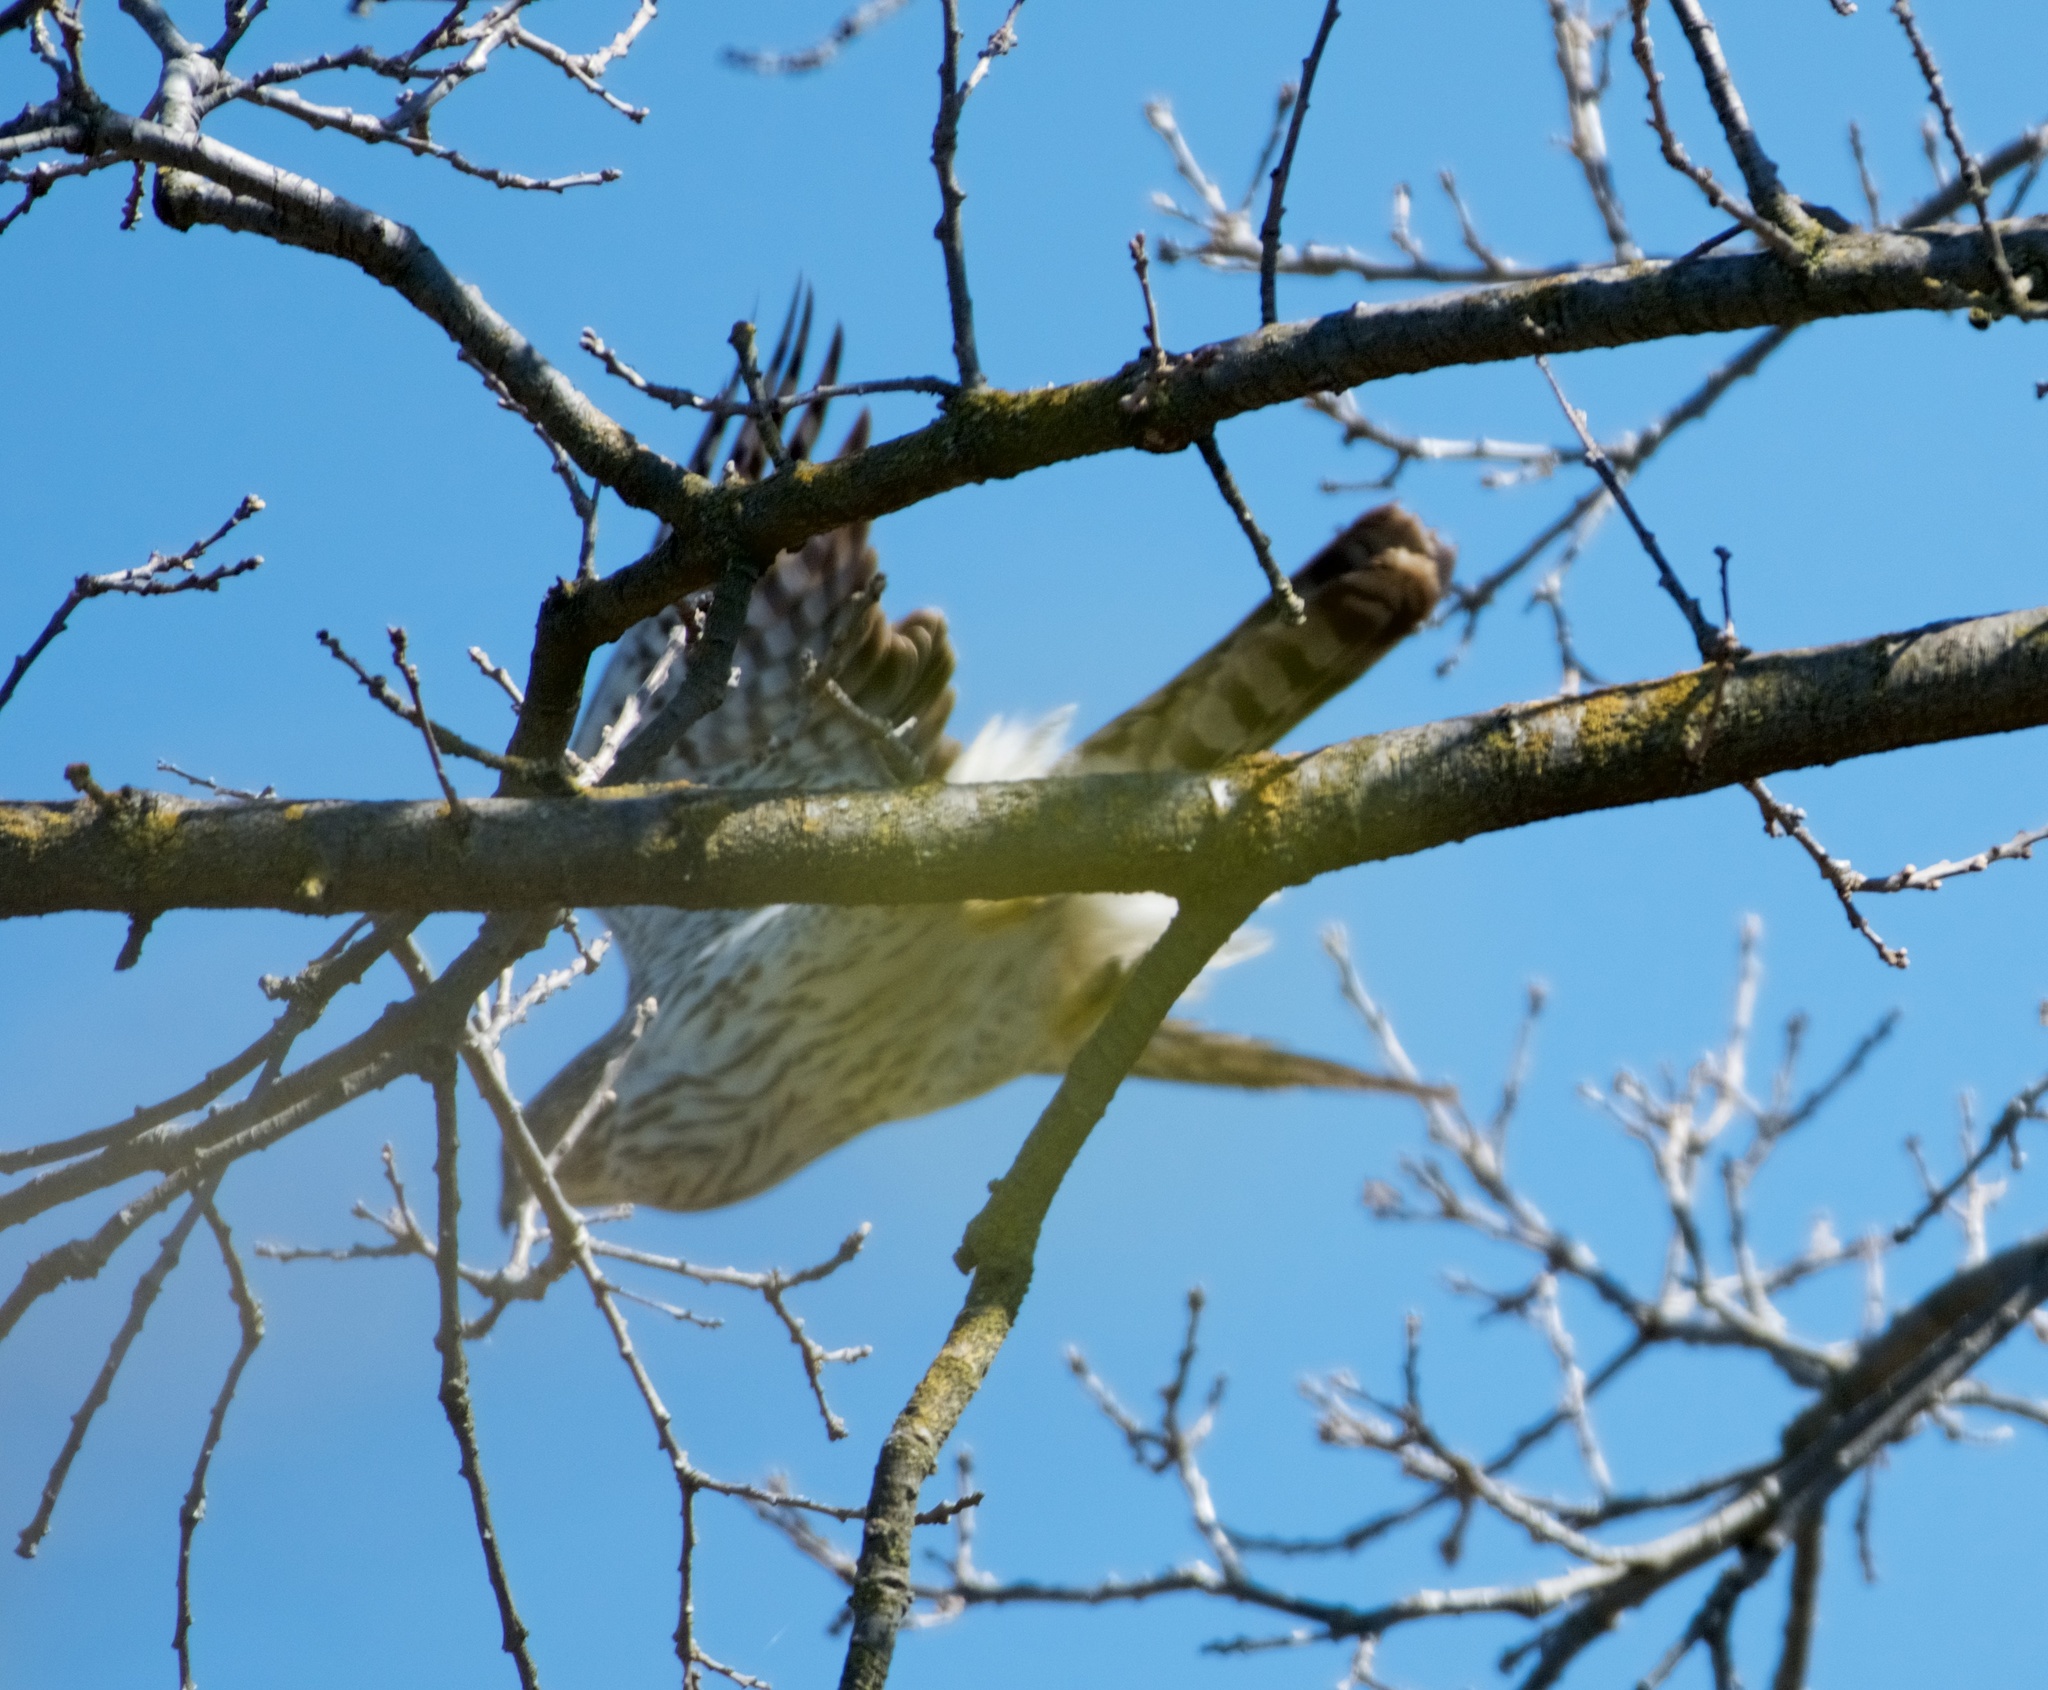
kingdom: Animalia
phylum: Chordata
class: Aves
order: Accipitriformes
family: Accipitridae
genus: Accipiter
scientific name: Accipiter cooperii
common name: Cooper's hawk
